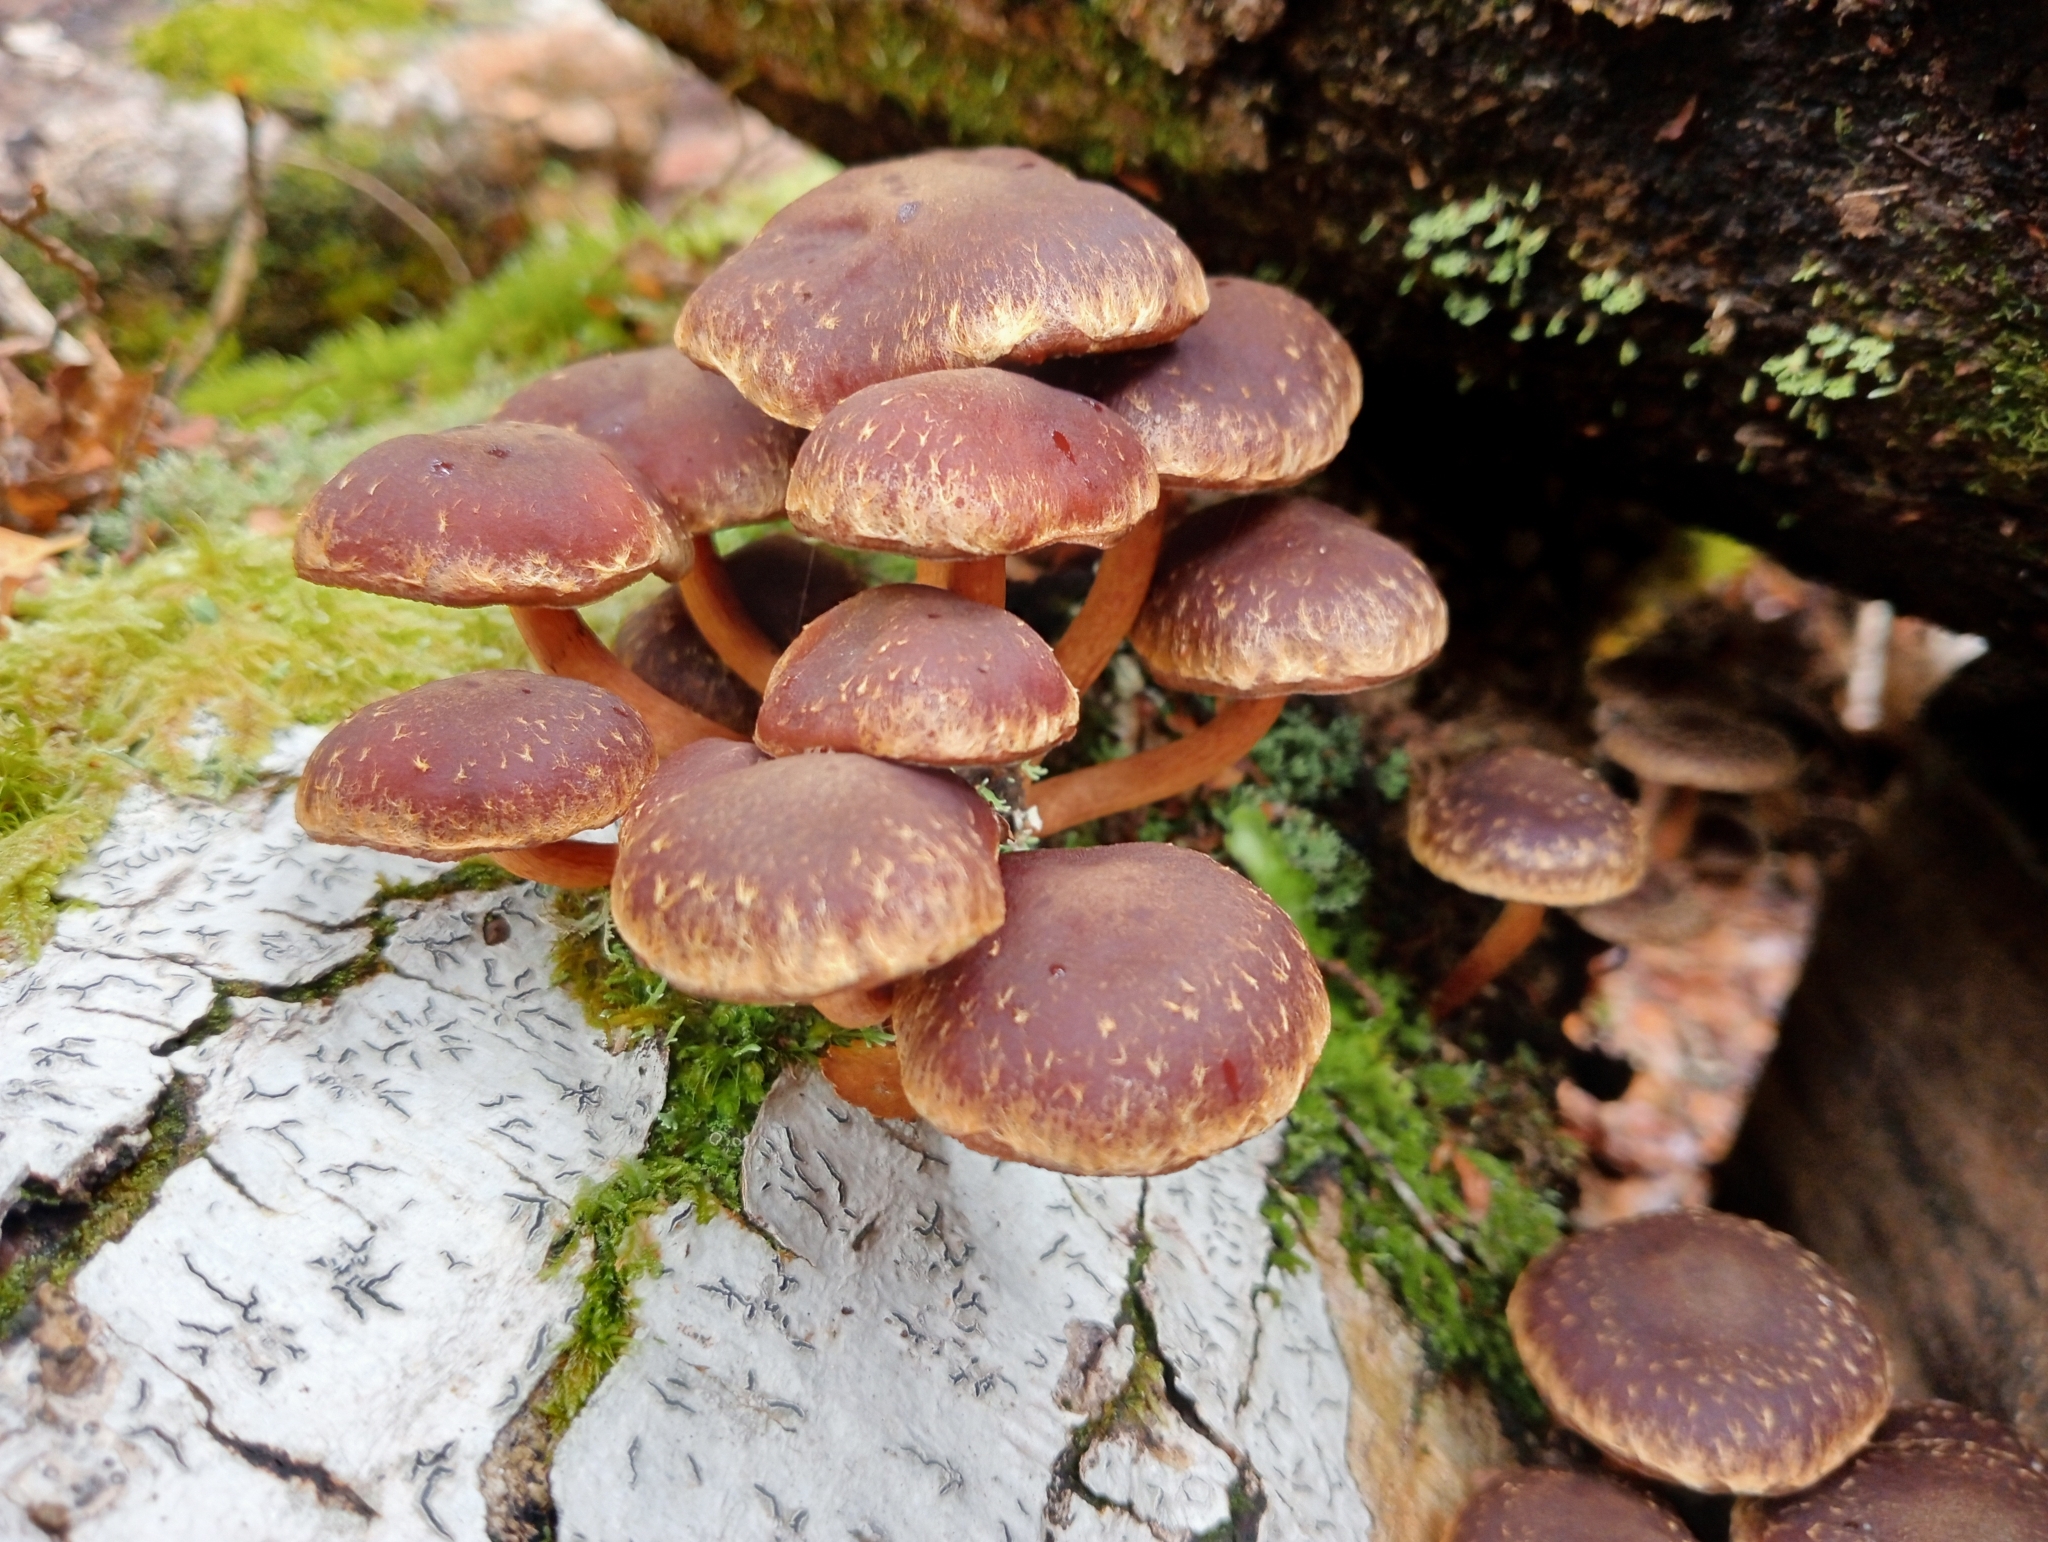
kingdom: Fungi
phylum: Basidiomycota
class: Agaricomycetes
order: Agaricales
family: Strophariaceae
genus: Hypholoma
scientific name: Hypholoma brunneum
